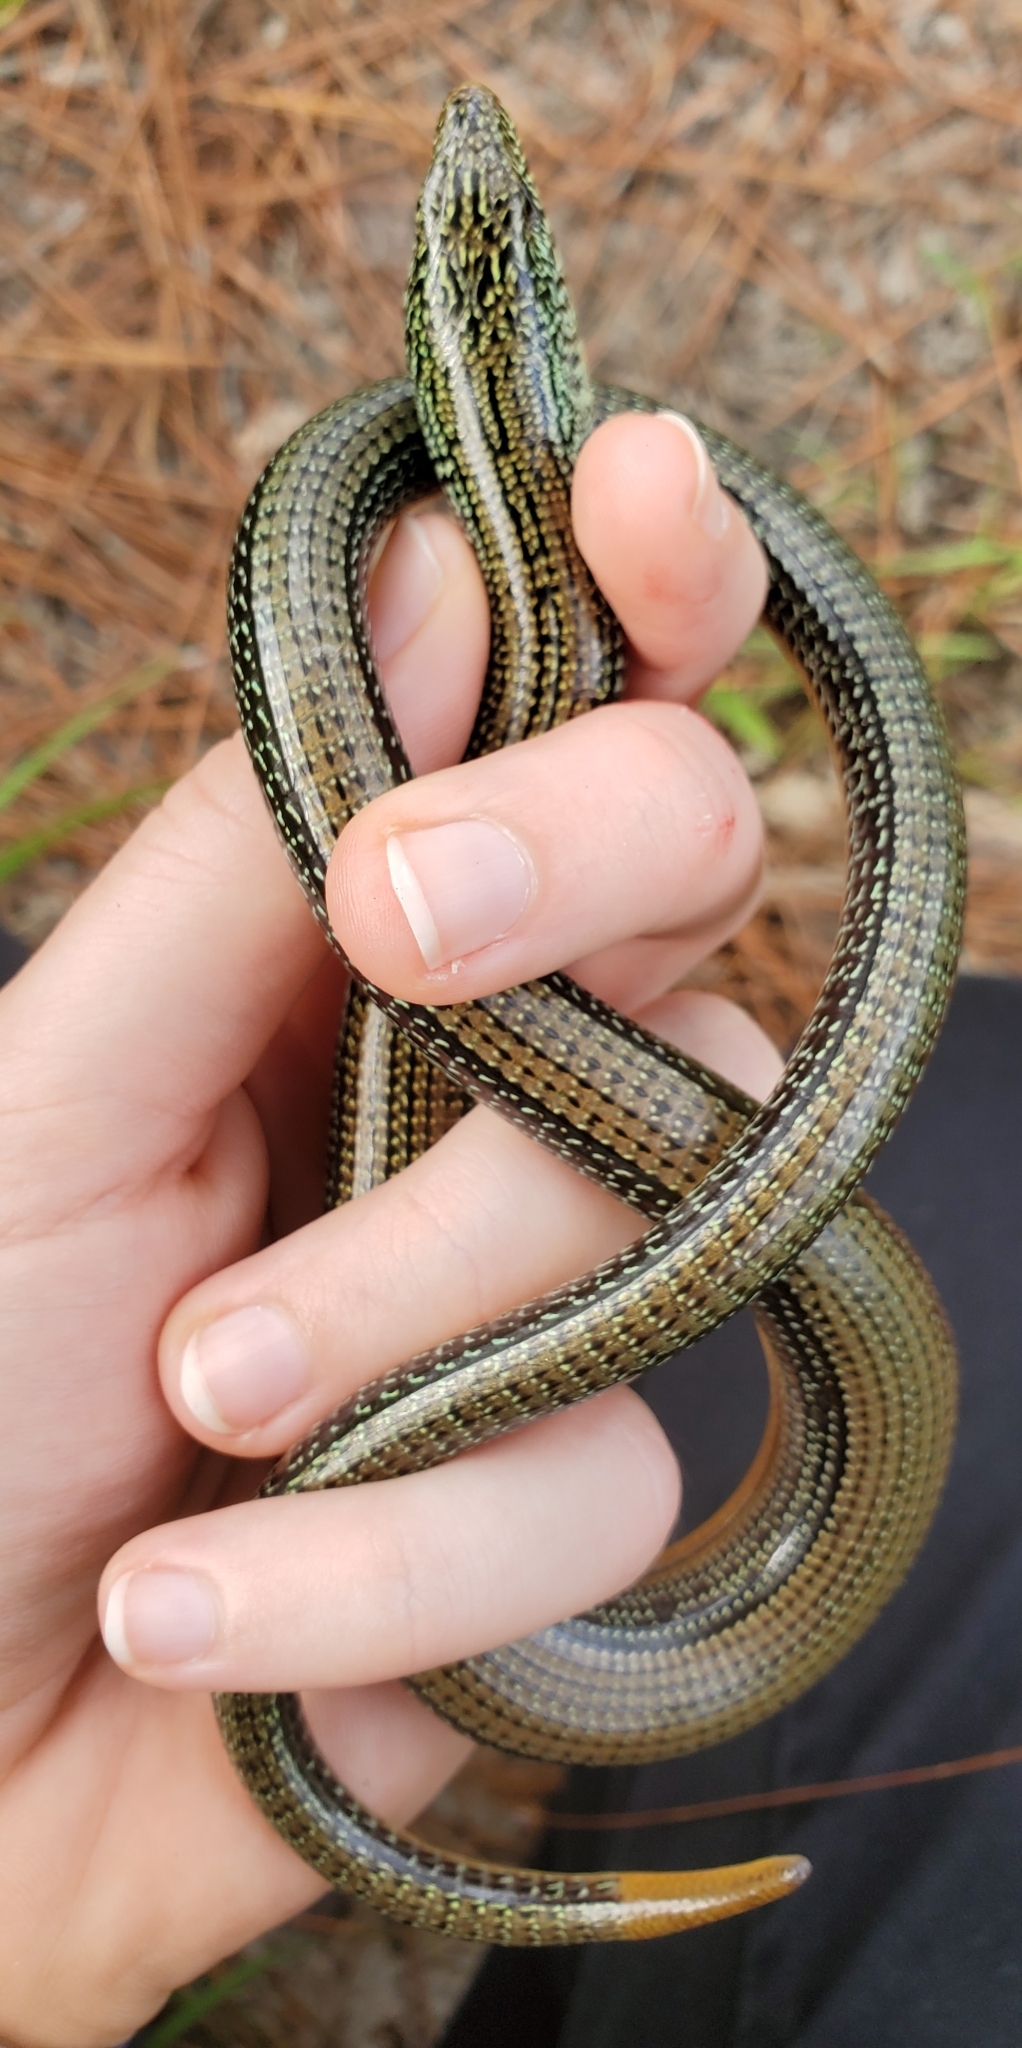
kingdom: Animalia
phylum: Chordata
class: Squamata
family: Anguidae
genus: Ophisaurus
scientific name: Ophisaurus ventralis
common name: Eastern glass lizard
